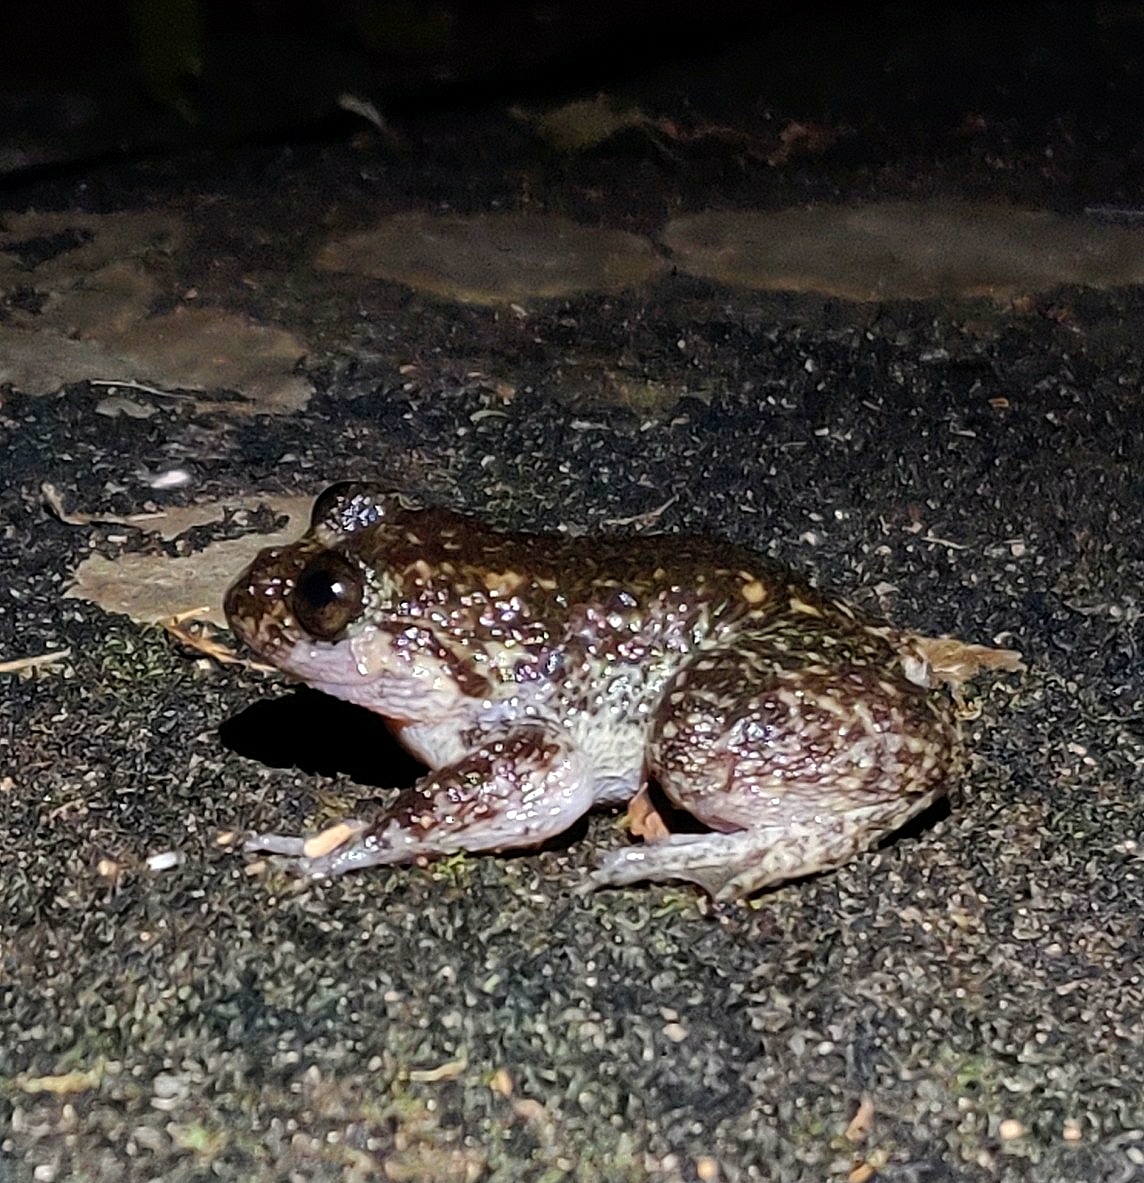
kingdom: Animalia
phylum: Chordata
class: Amphibia
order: Anura
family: Nyctibatrachidae
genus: Nyctibatrachus
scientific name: Nyctibatrachus grandis
